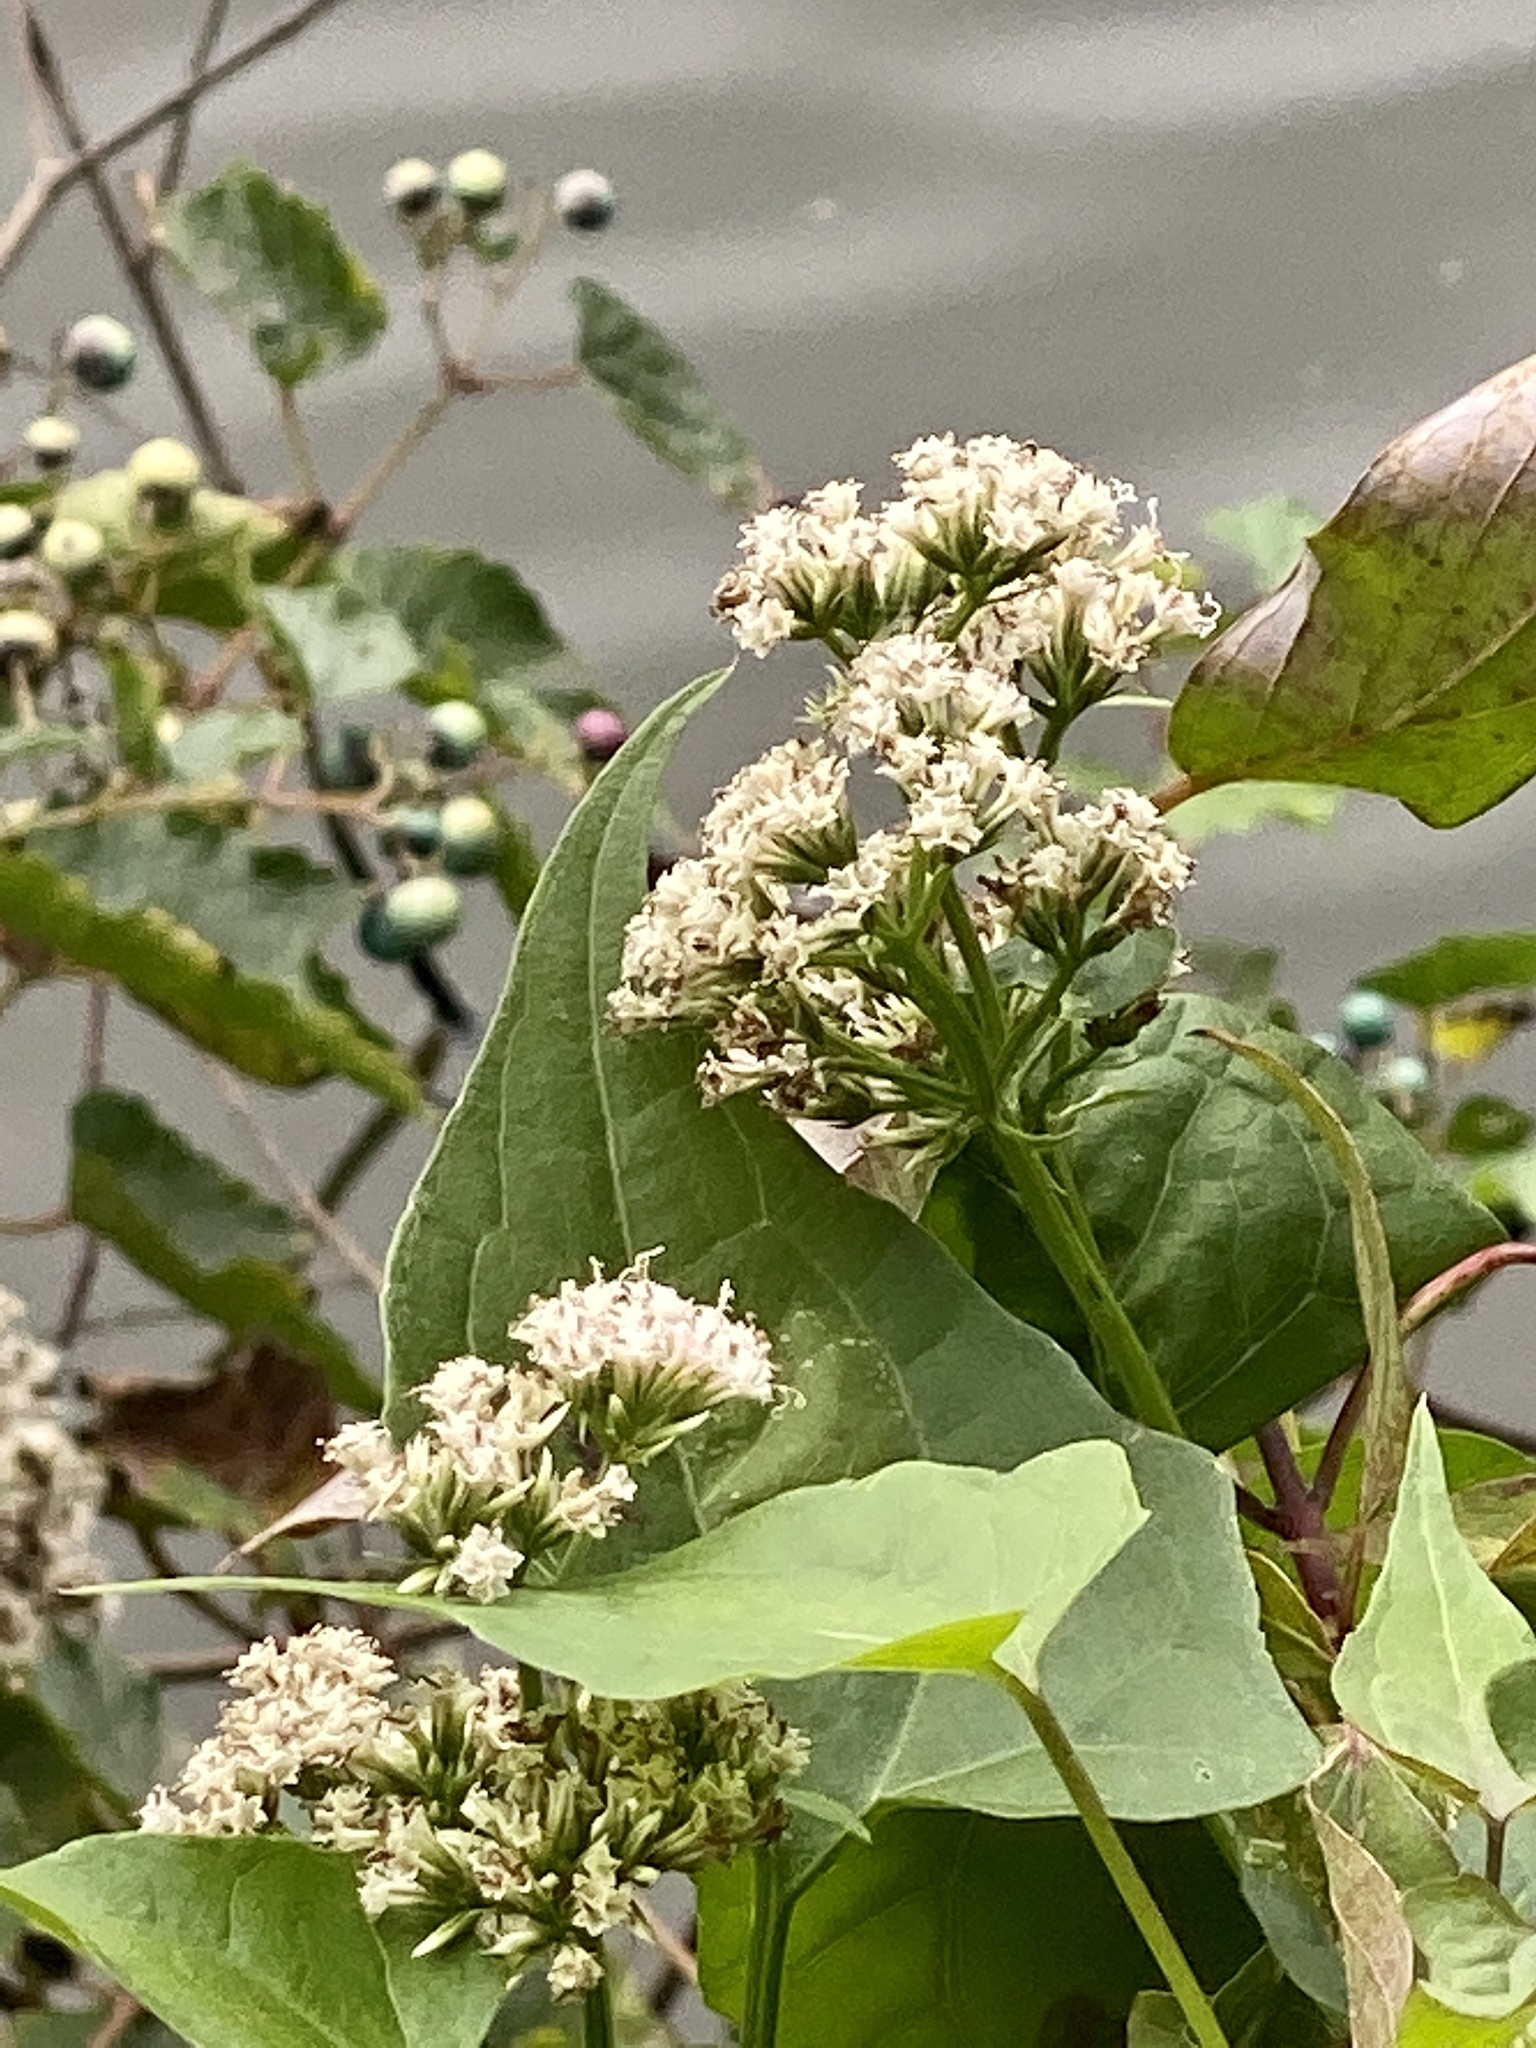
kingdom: Plantae
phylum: Tracheophyta
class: Magnoliopsida
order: Asterales
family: Asteraceae
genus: Mikania
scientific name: Mikania scandens
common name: Climbing hempvine
